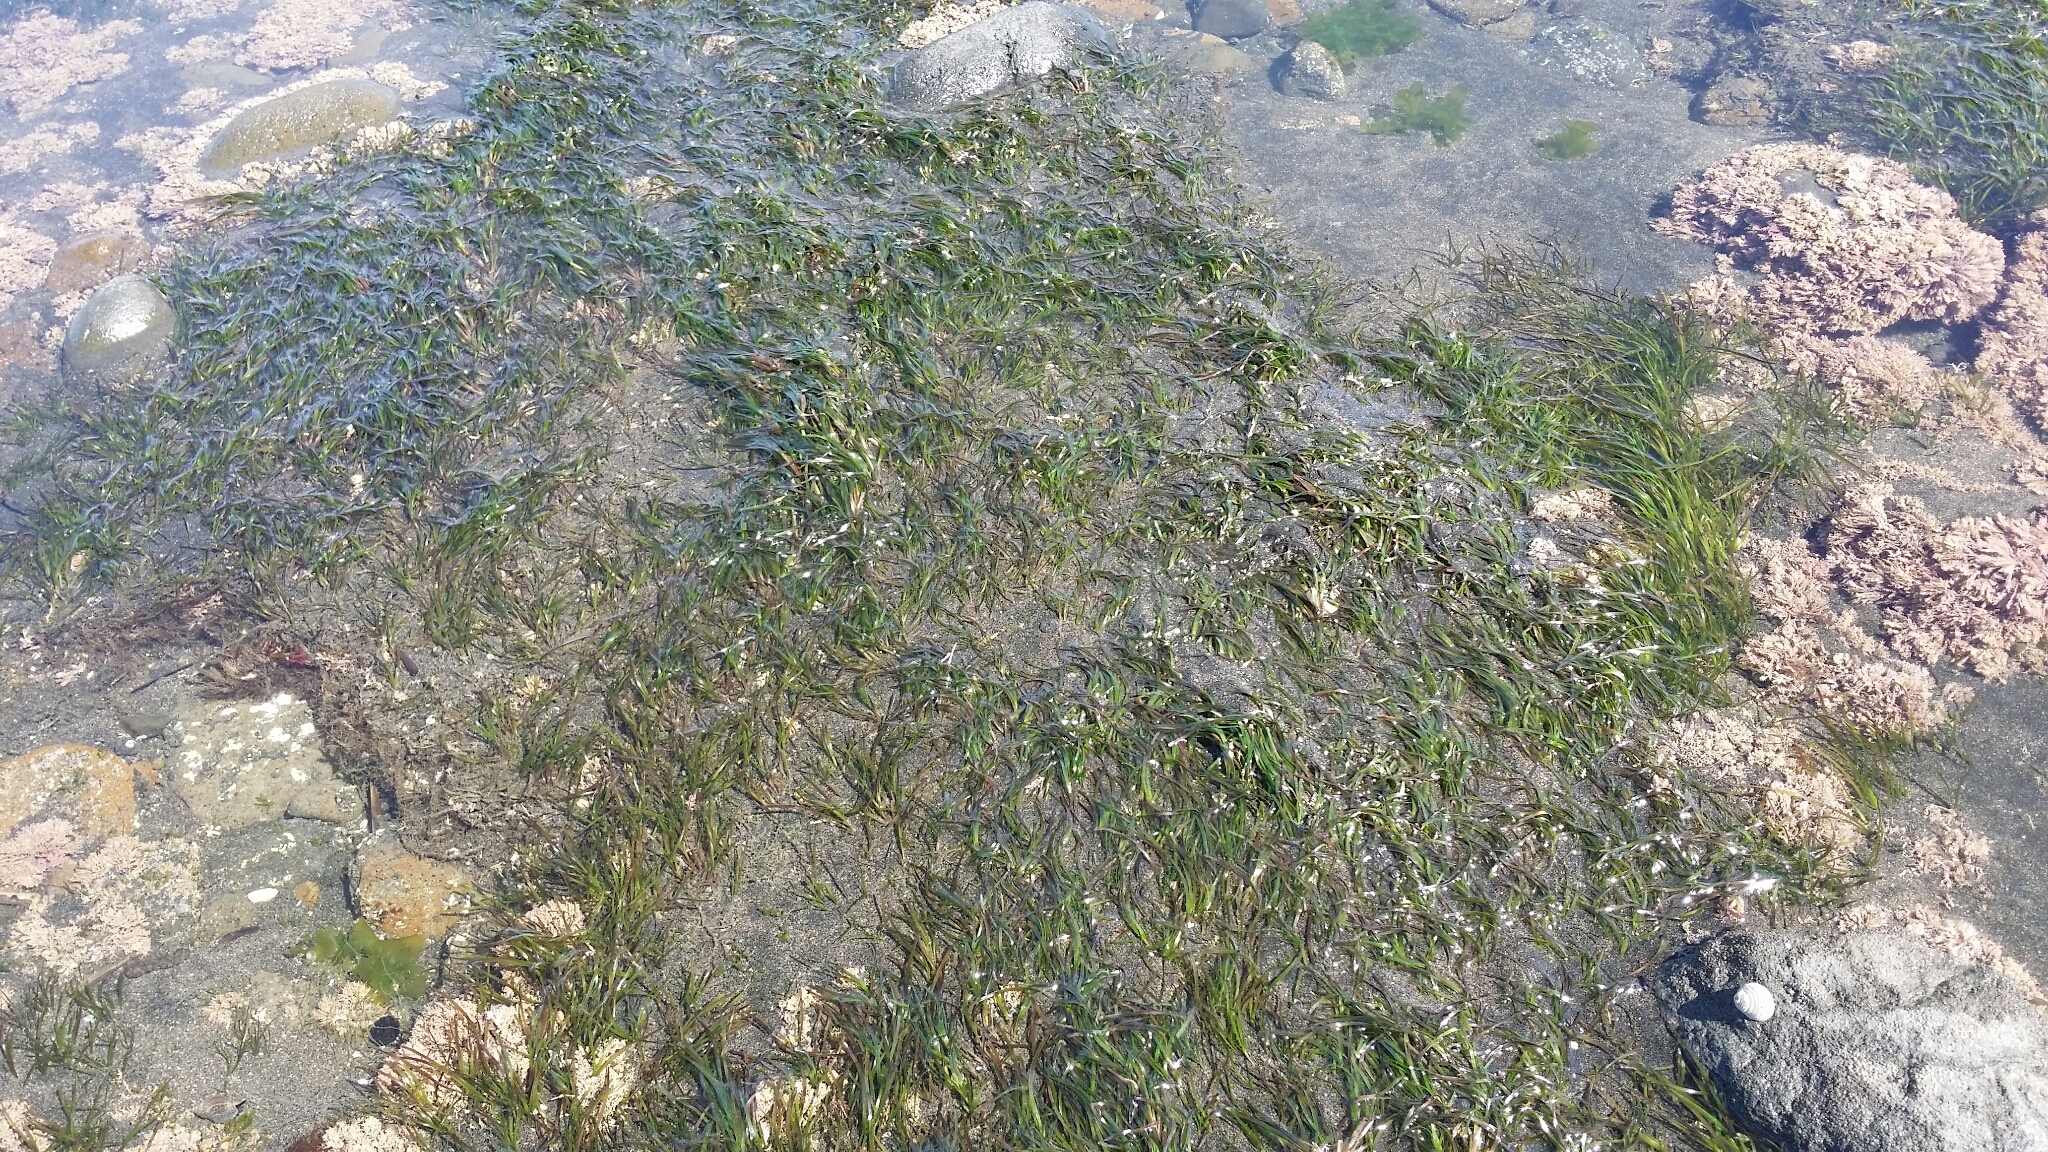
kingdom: Plantae
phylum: Tracheophyta
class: Liliopsida
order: Alismatales
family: Zosteraceae
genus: Zostera
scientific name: Zostera muelleri
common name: Species code: zc
